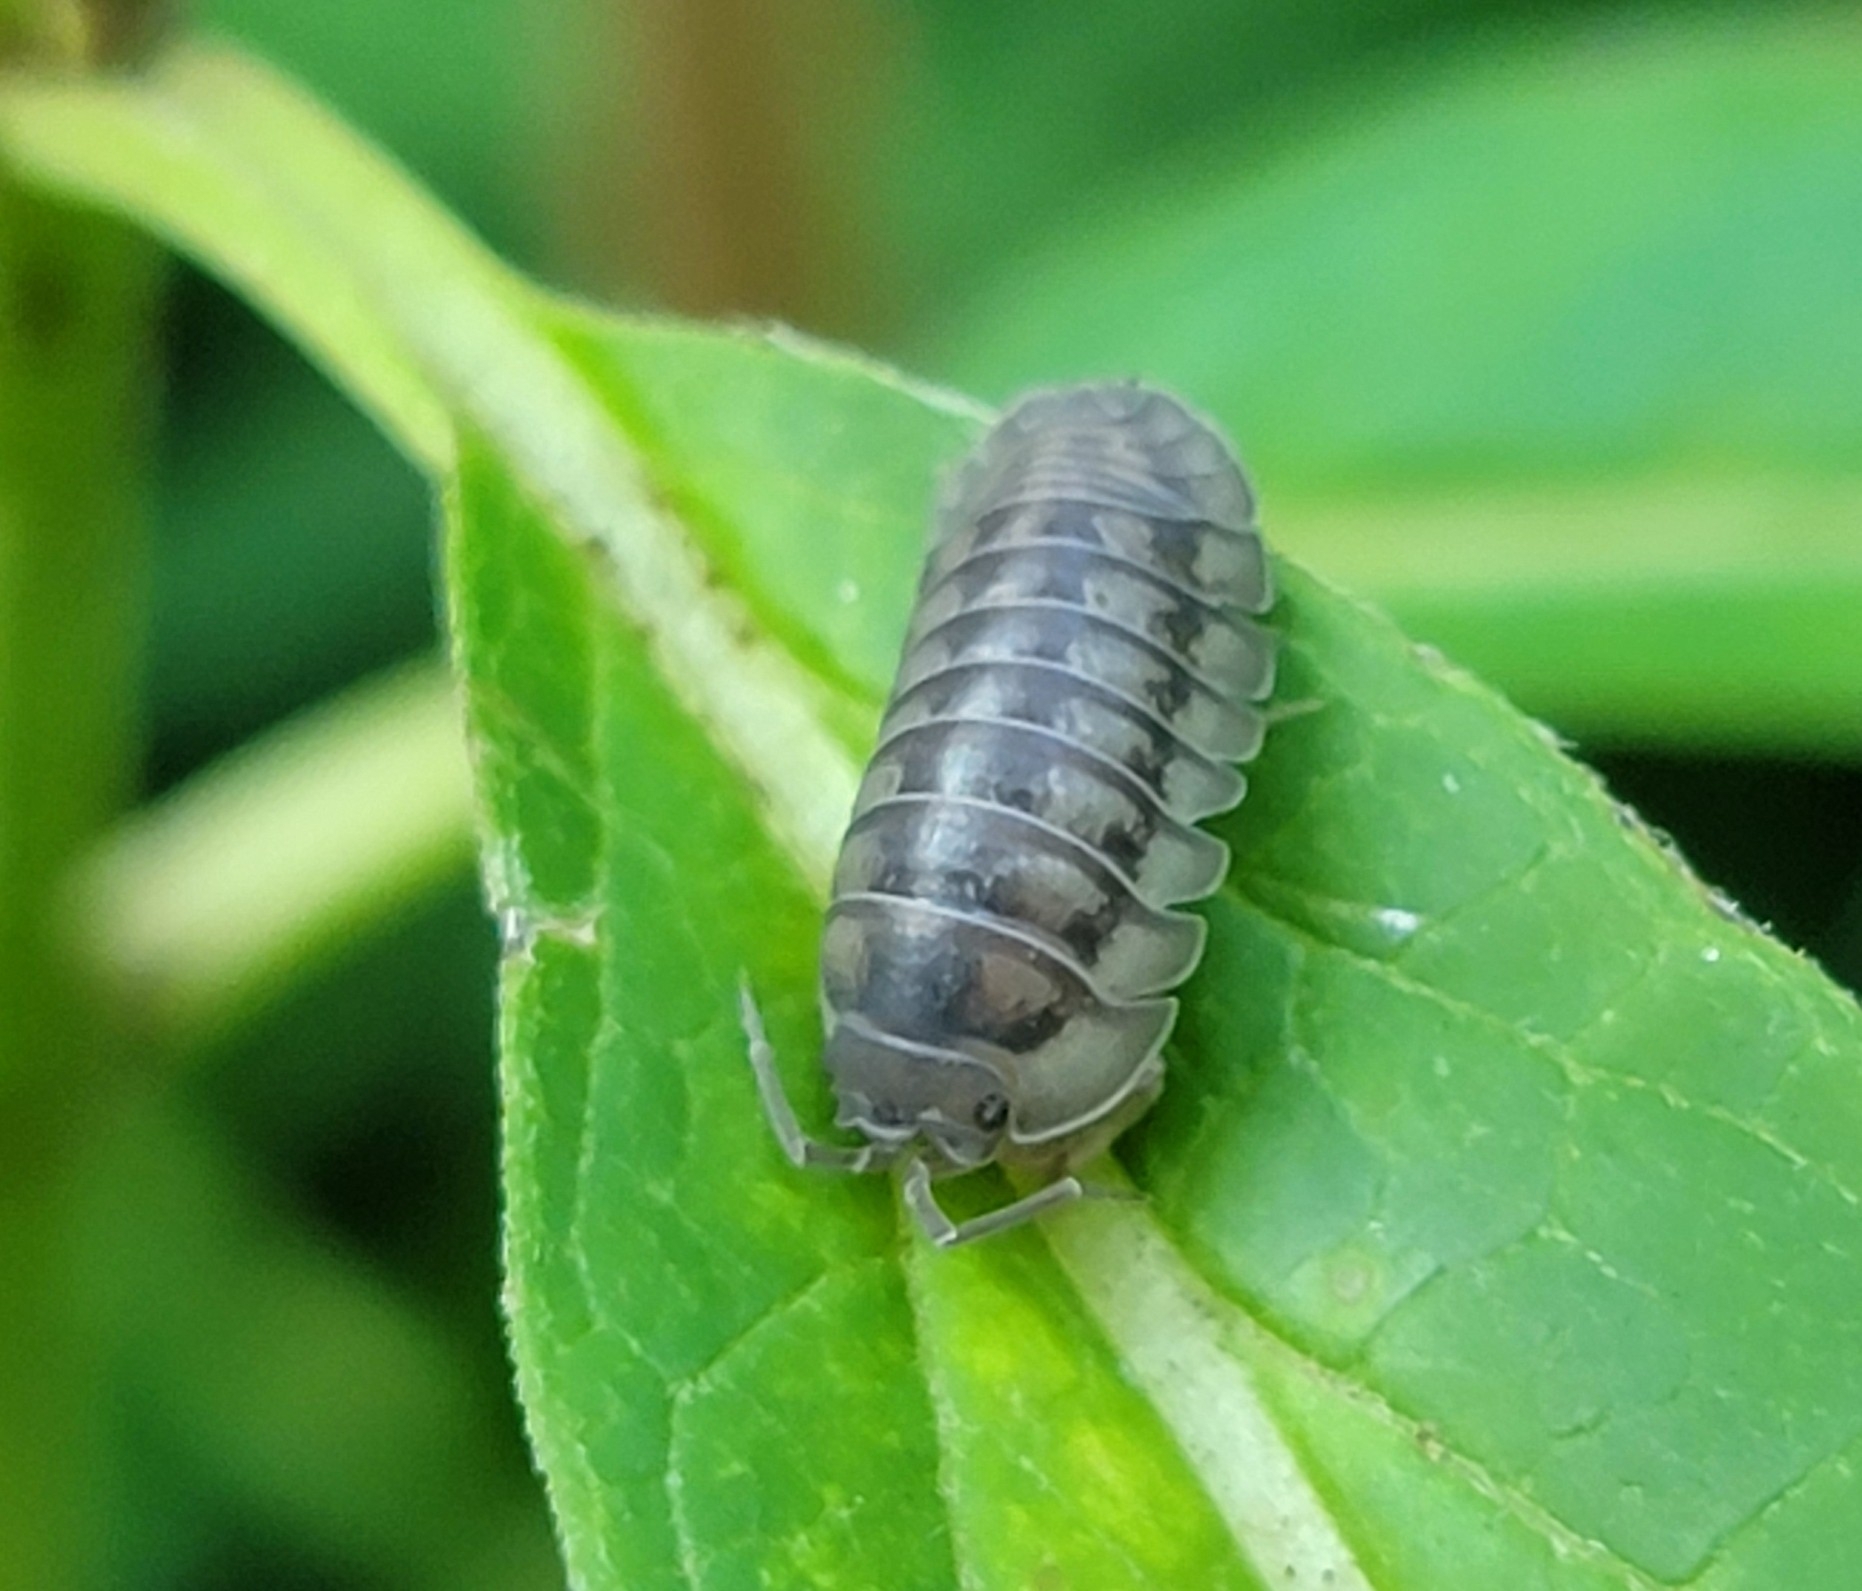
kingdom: Animalia
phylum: Arthropoda
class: Malacostraca
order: Isopoda
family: Armadillidiidae
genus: Armadillidium
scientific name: Armadillidium nasatum
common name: Isopod
